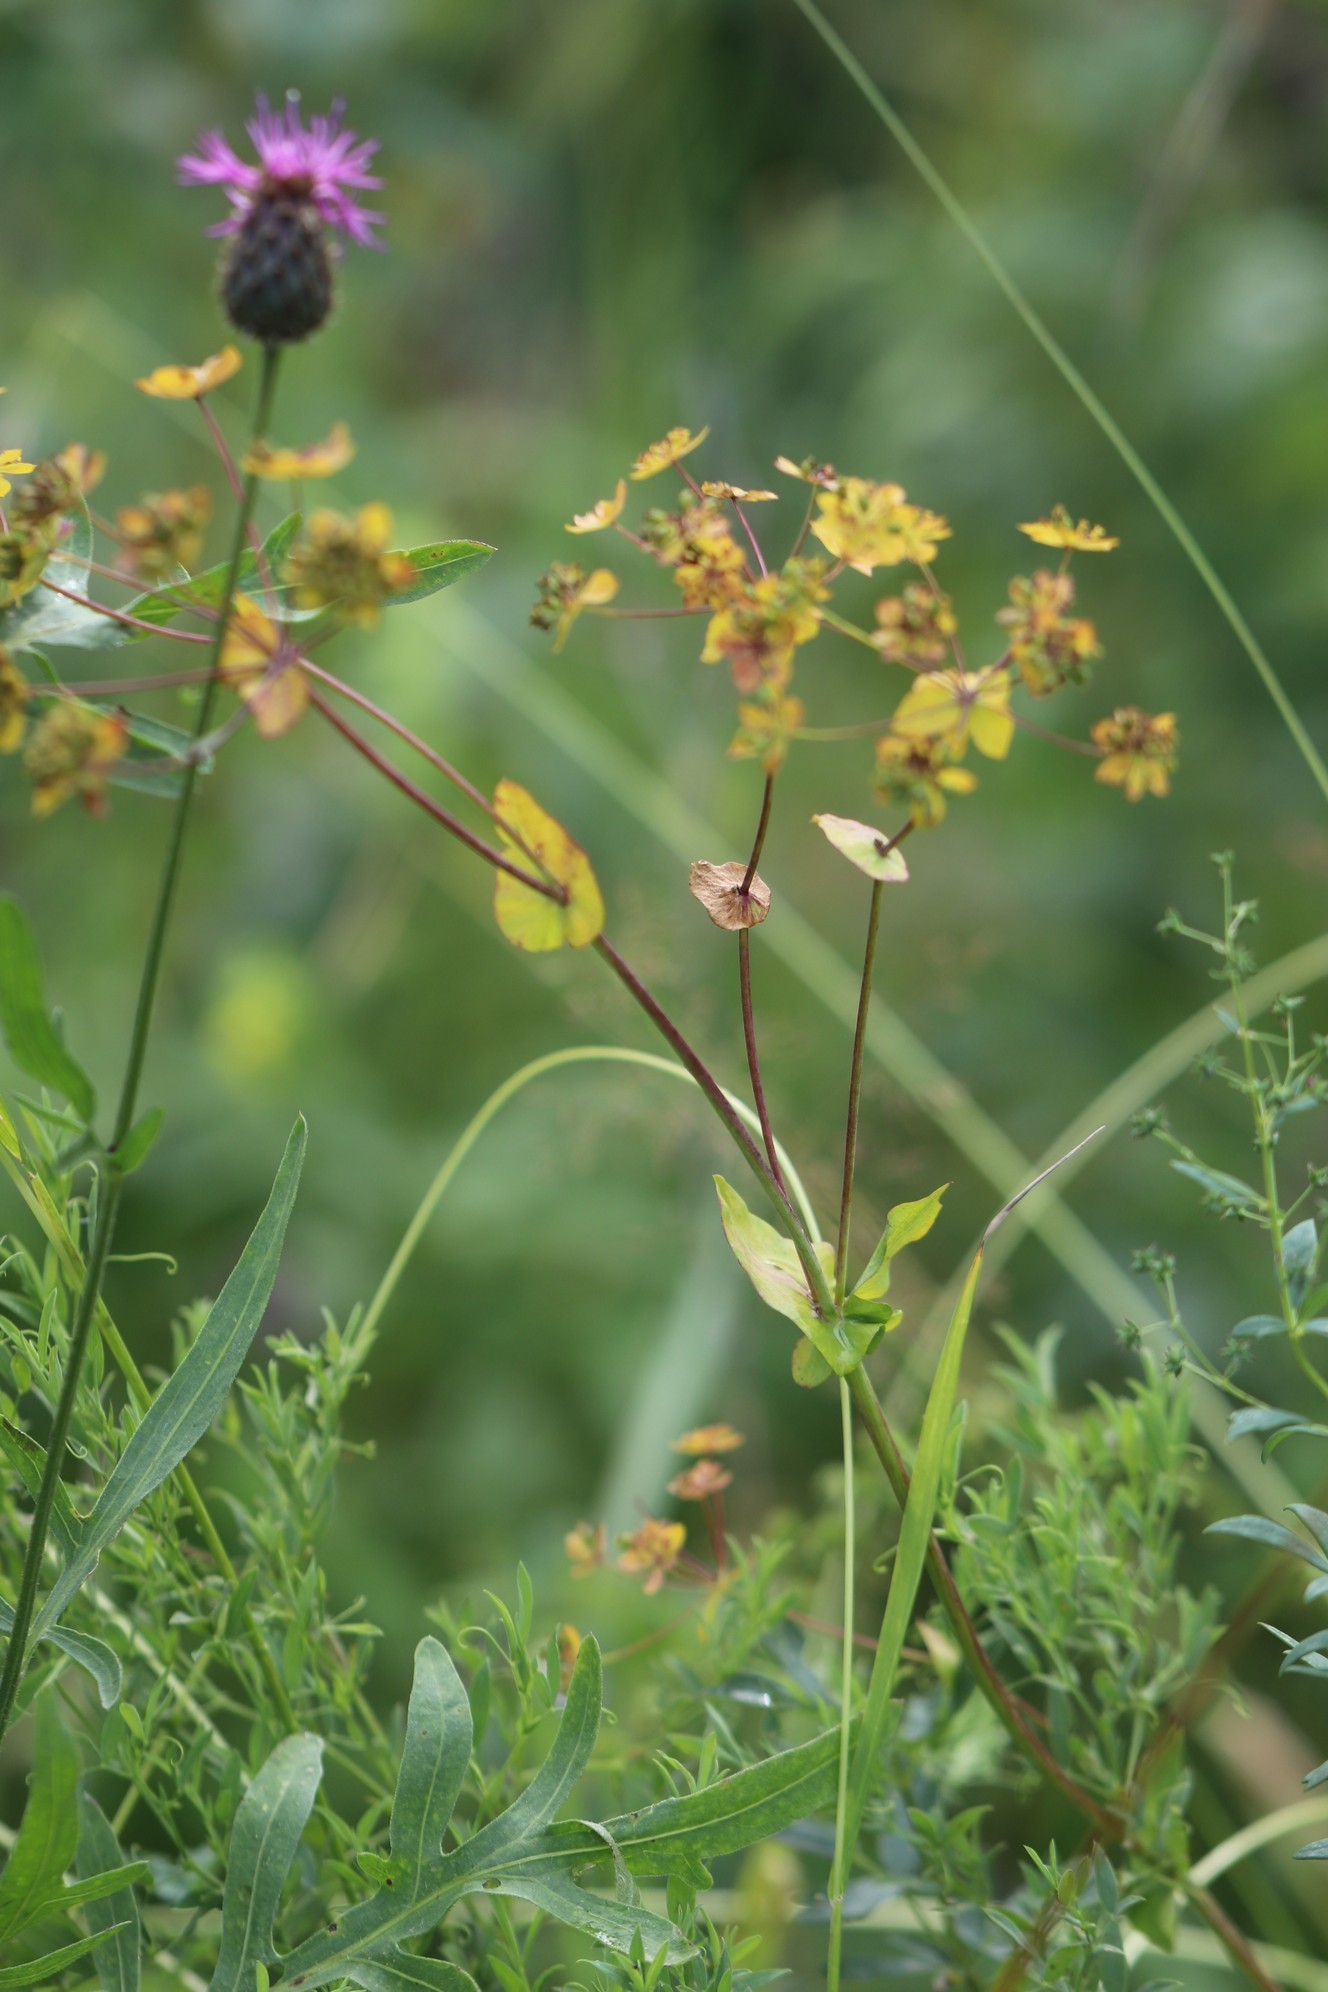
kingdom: Plantae
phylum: Tracheophyta
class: Magnoliopsida
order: Apiales
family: Apiaceae
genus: Bupleurum
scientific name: Bupleurum aureum
